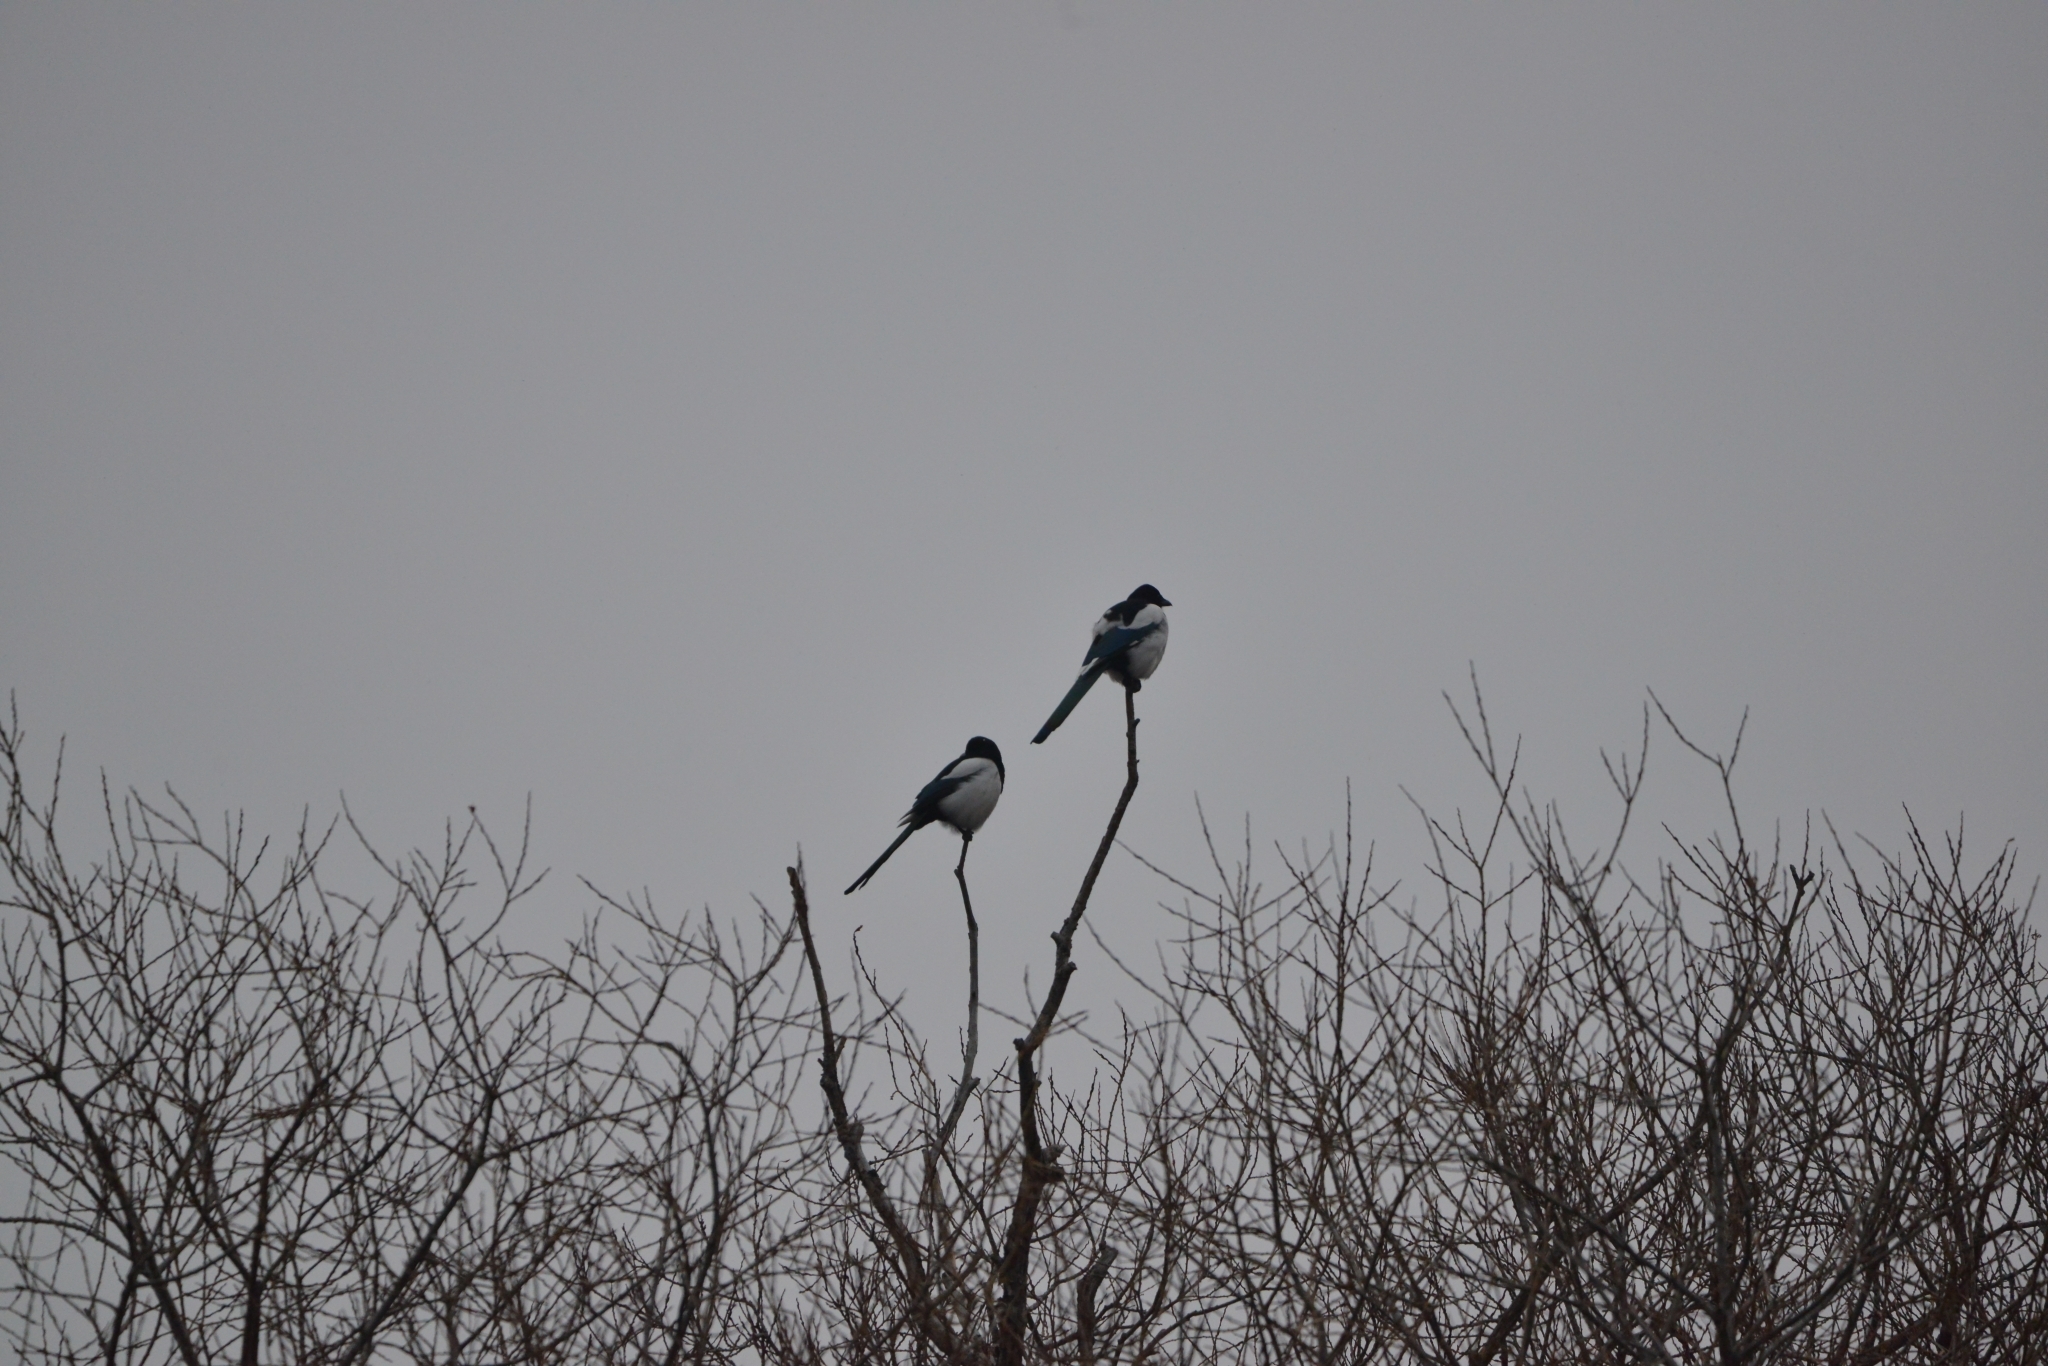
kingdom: Animalia
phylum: Chordata
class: Aves
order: Passeriformes
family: Corvidae
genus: Pica
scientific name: Pica pica
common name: Eurasian magpie
